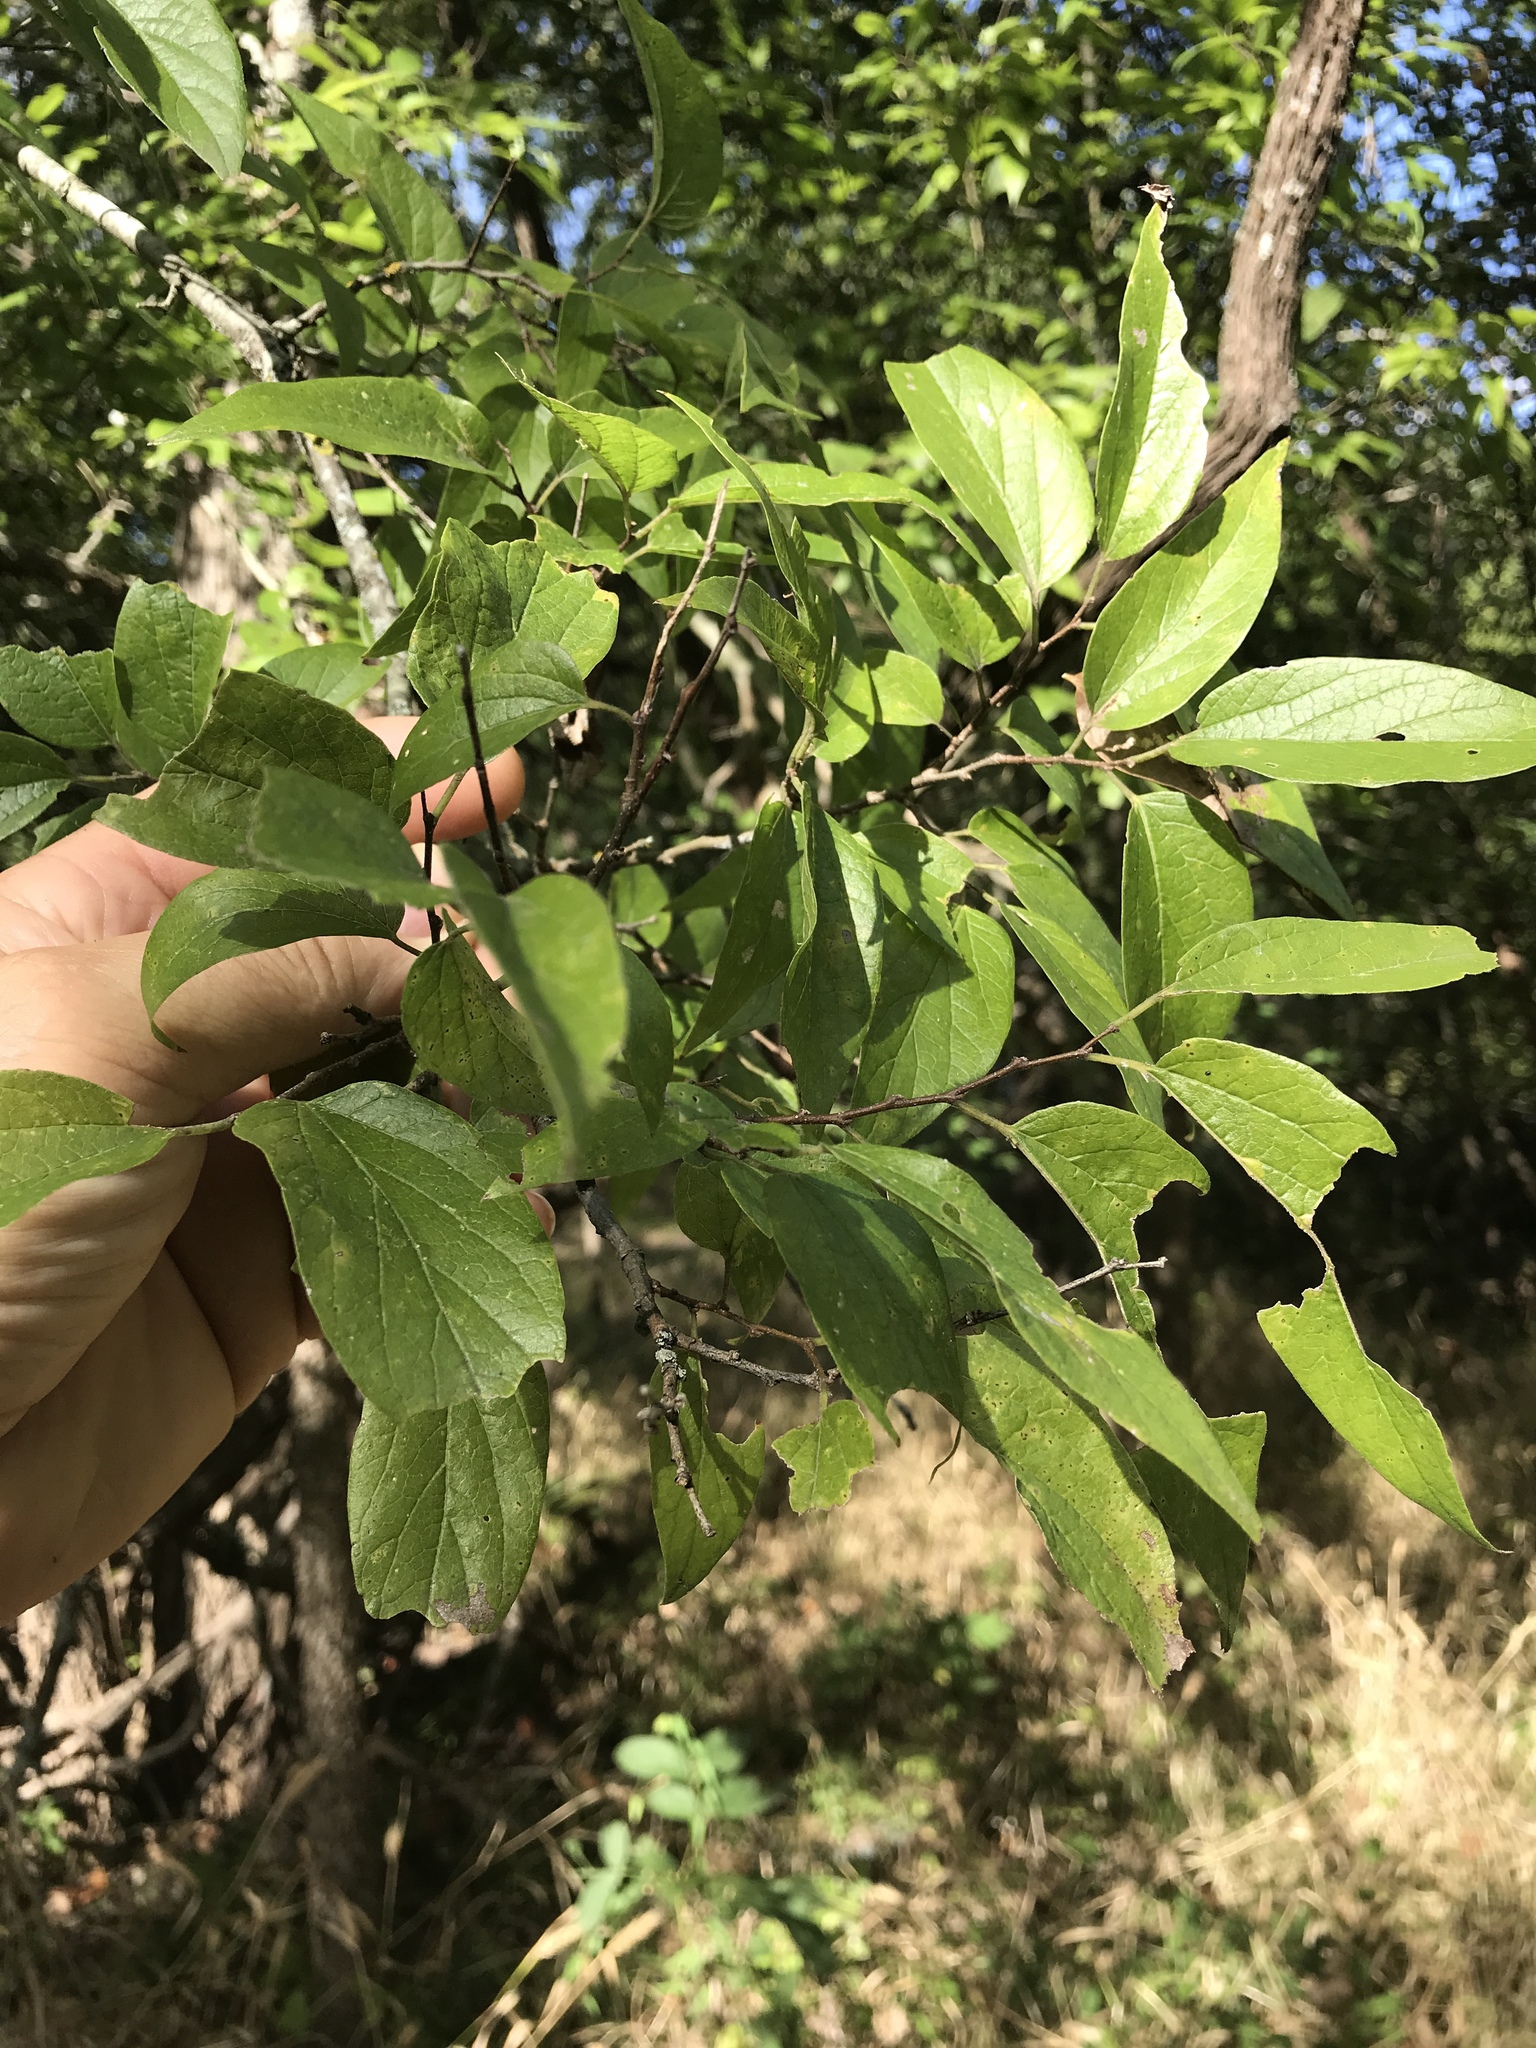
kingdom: Plantae
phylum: Tracheophyta
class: Magnoliopsida
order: Rosales
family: Cannabaceae
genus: Celtis
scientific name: Celtis laevigata
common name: Sugarberry
